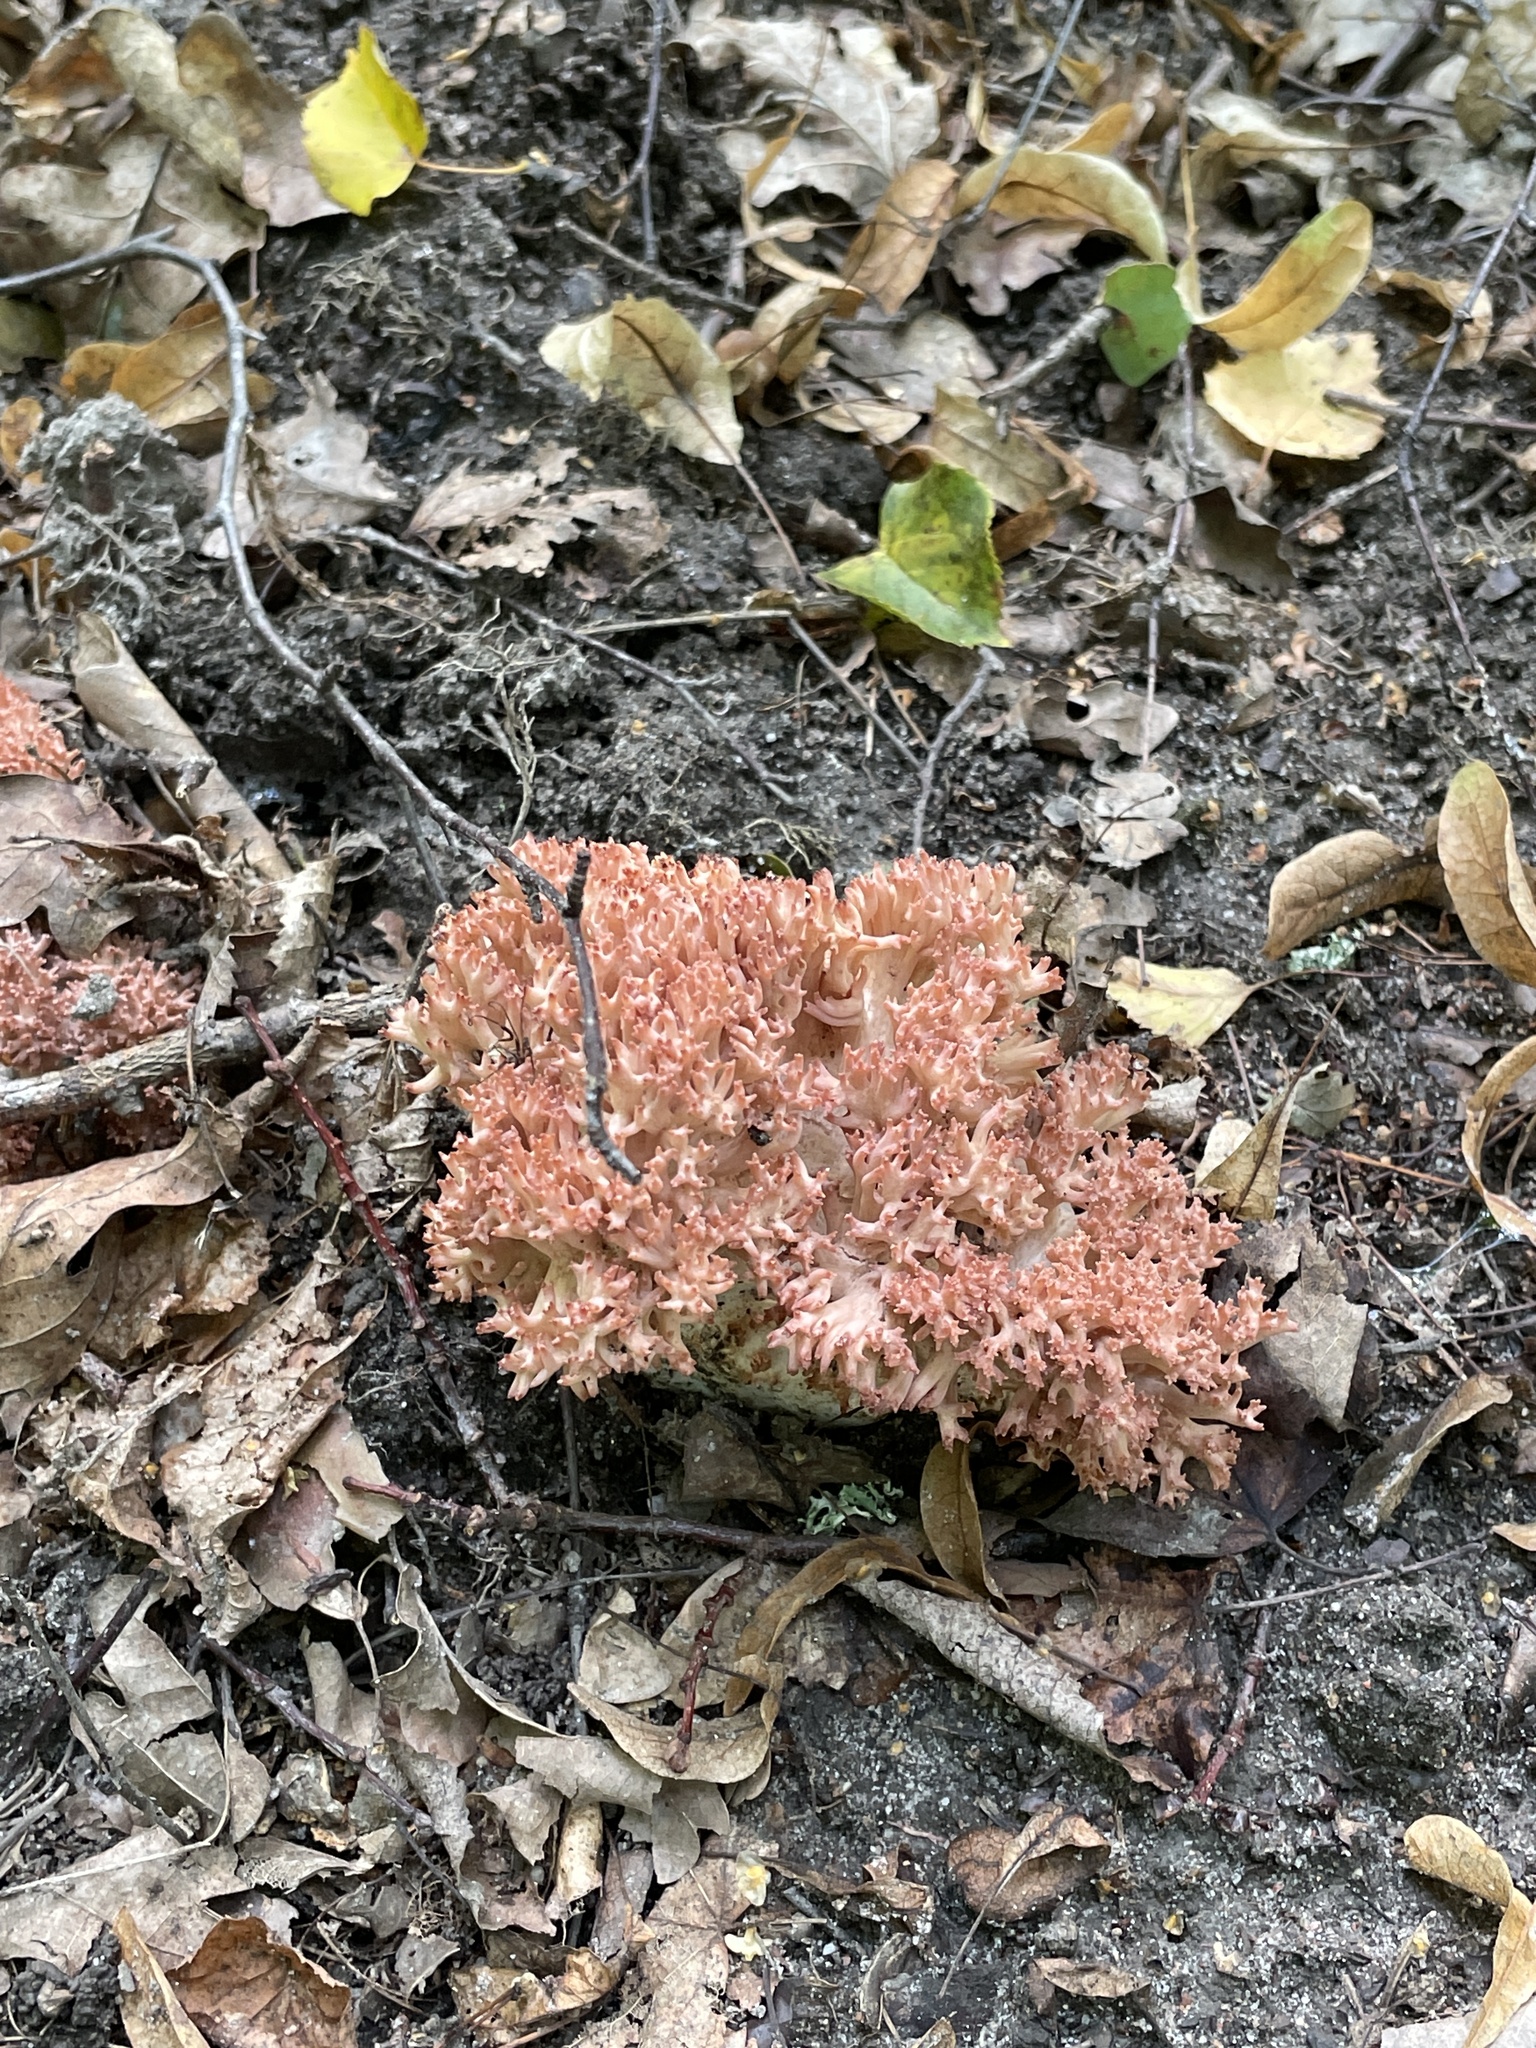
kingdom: Fungi
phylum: Basidiomycota
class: Agaricomycetes
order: Gomphales
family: Gomphaceae
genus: Ramaria
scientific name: Ramaria botrytis
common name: Rosso coral
